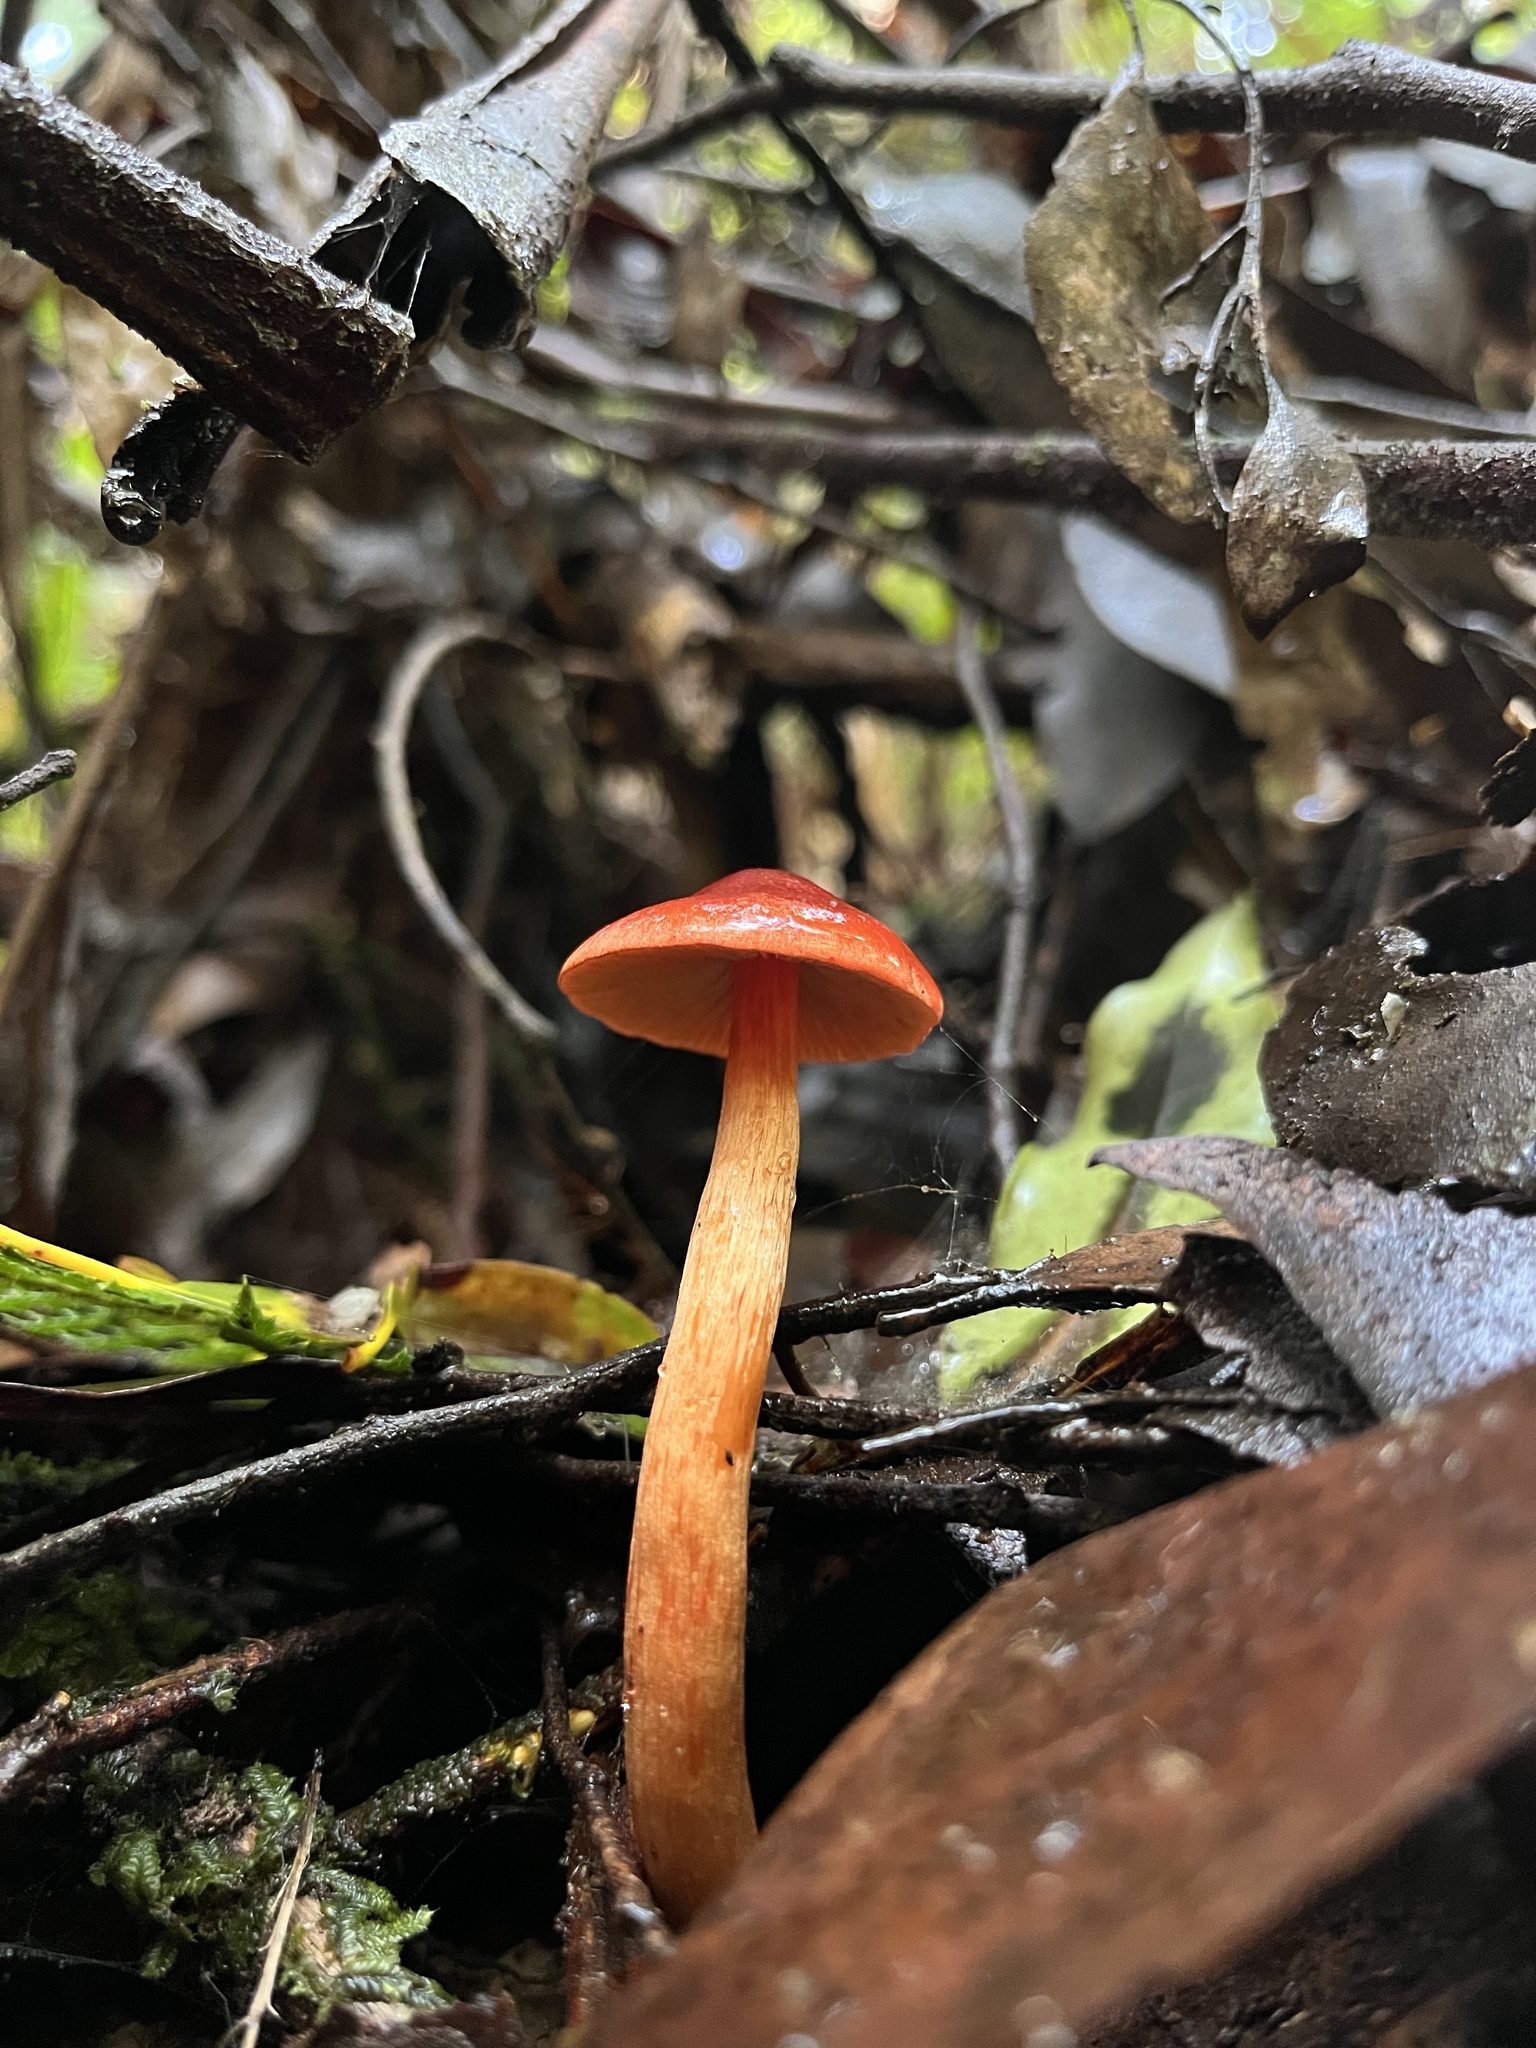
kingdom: Fungi
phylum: Basidiomycota
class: Agaricomycetes
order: Agaricales
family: Cortinariaceae
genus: Cortinarius
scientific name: Cortinarius
